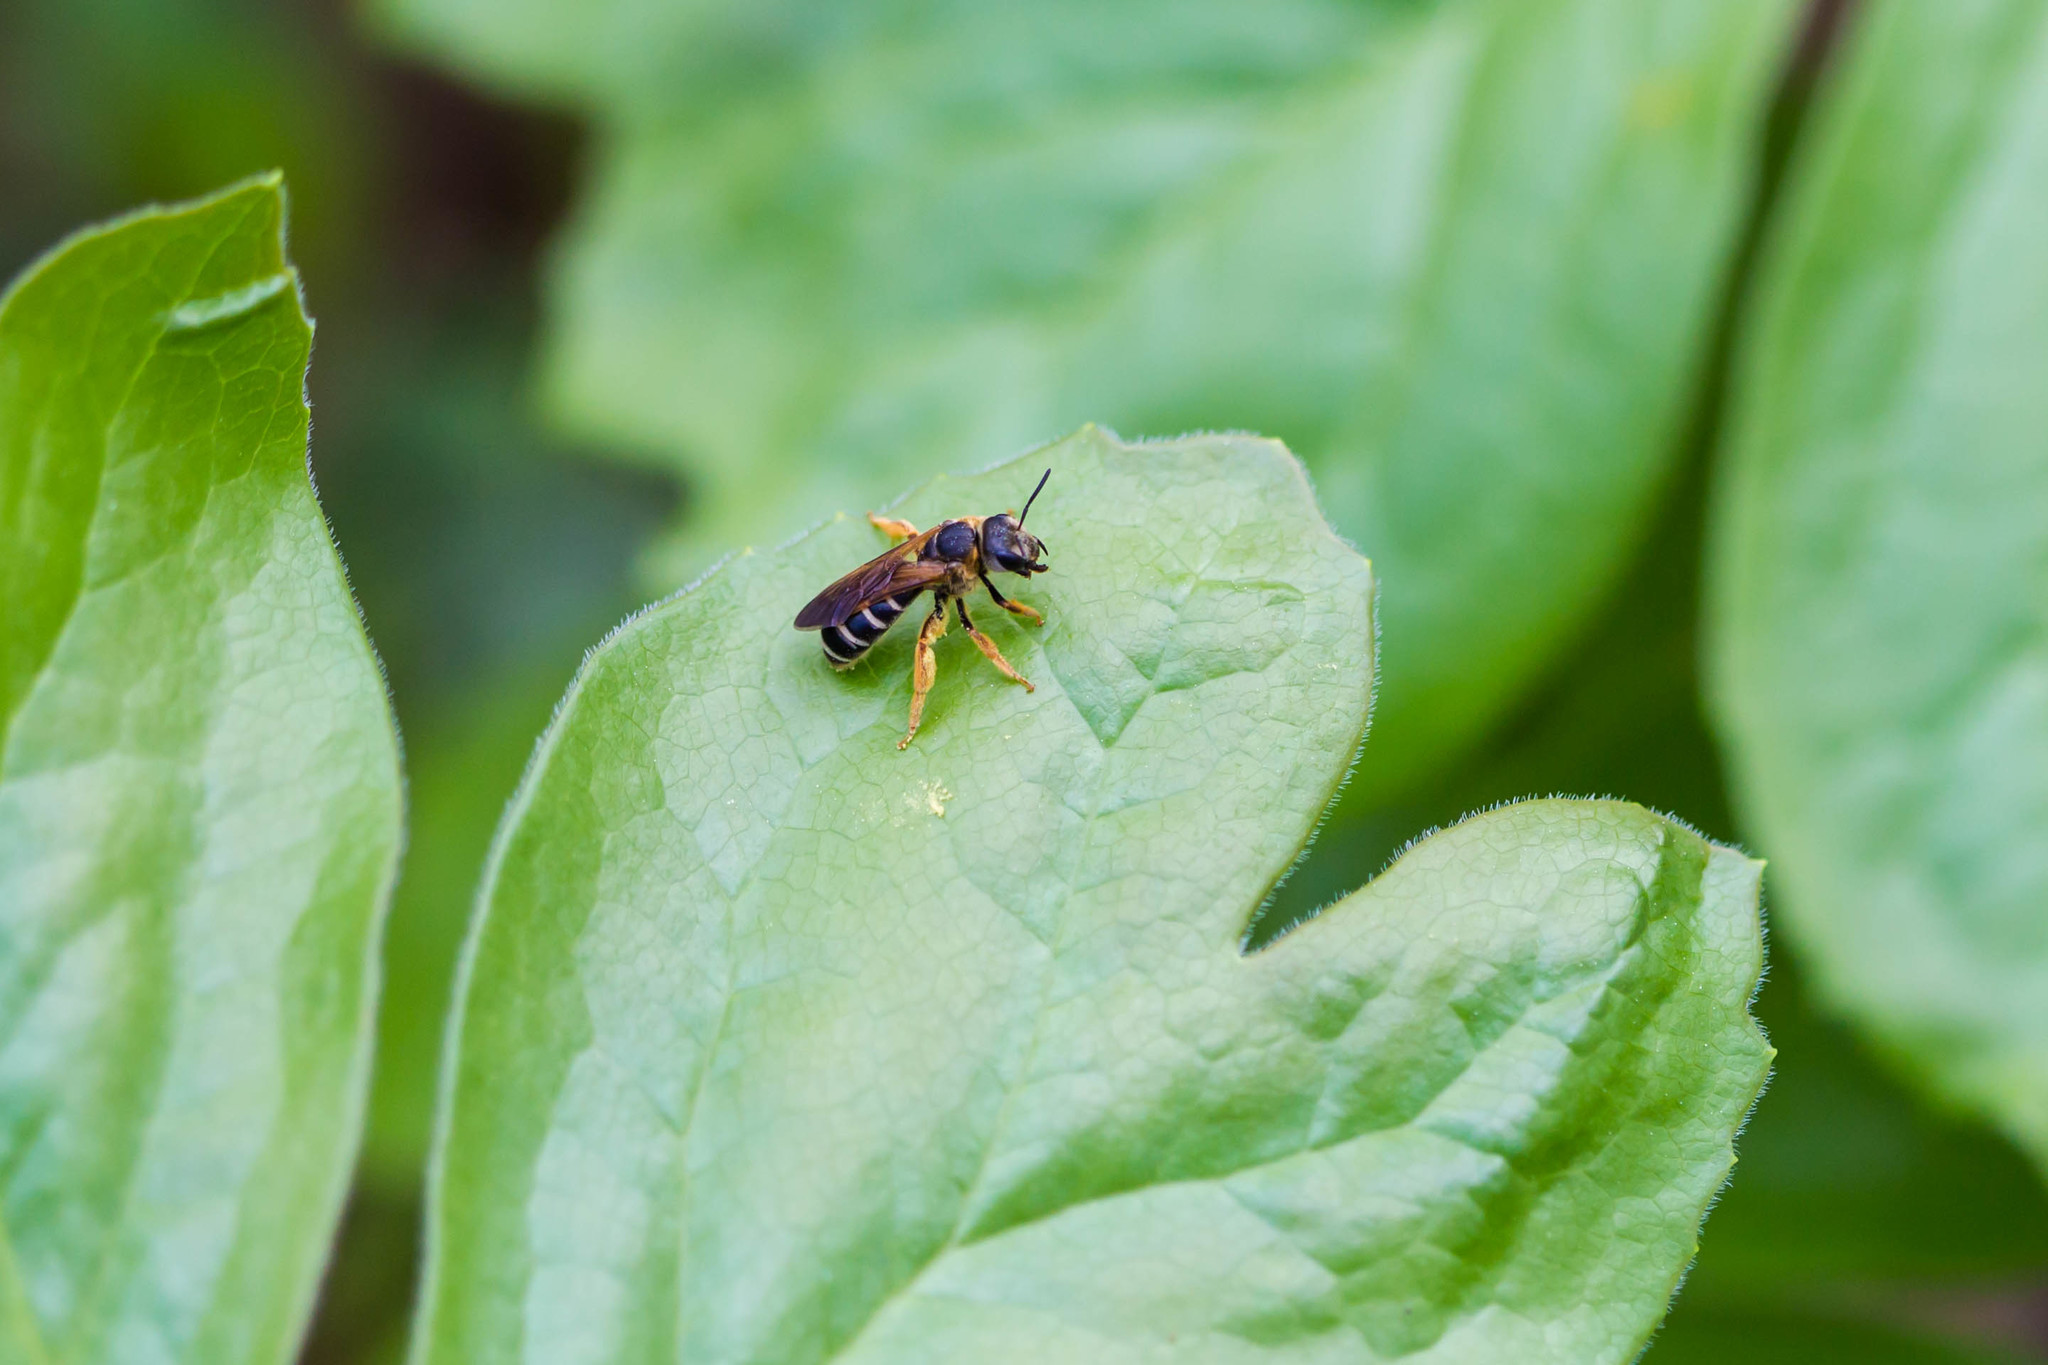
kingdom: Animalia
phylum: Arthropoda
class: Insecta
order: Hymenoptera
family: Halictidae
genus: Halictus
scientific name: Halictus parallelus
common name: Parallel-striped sweat bee
